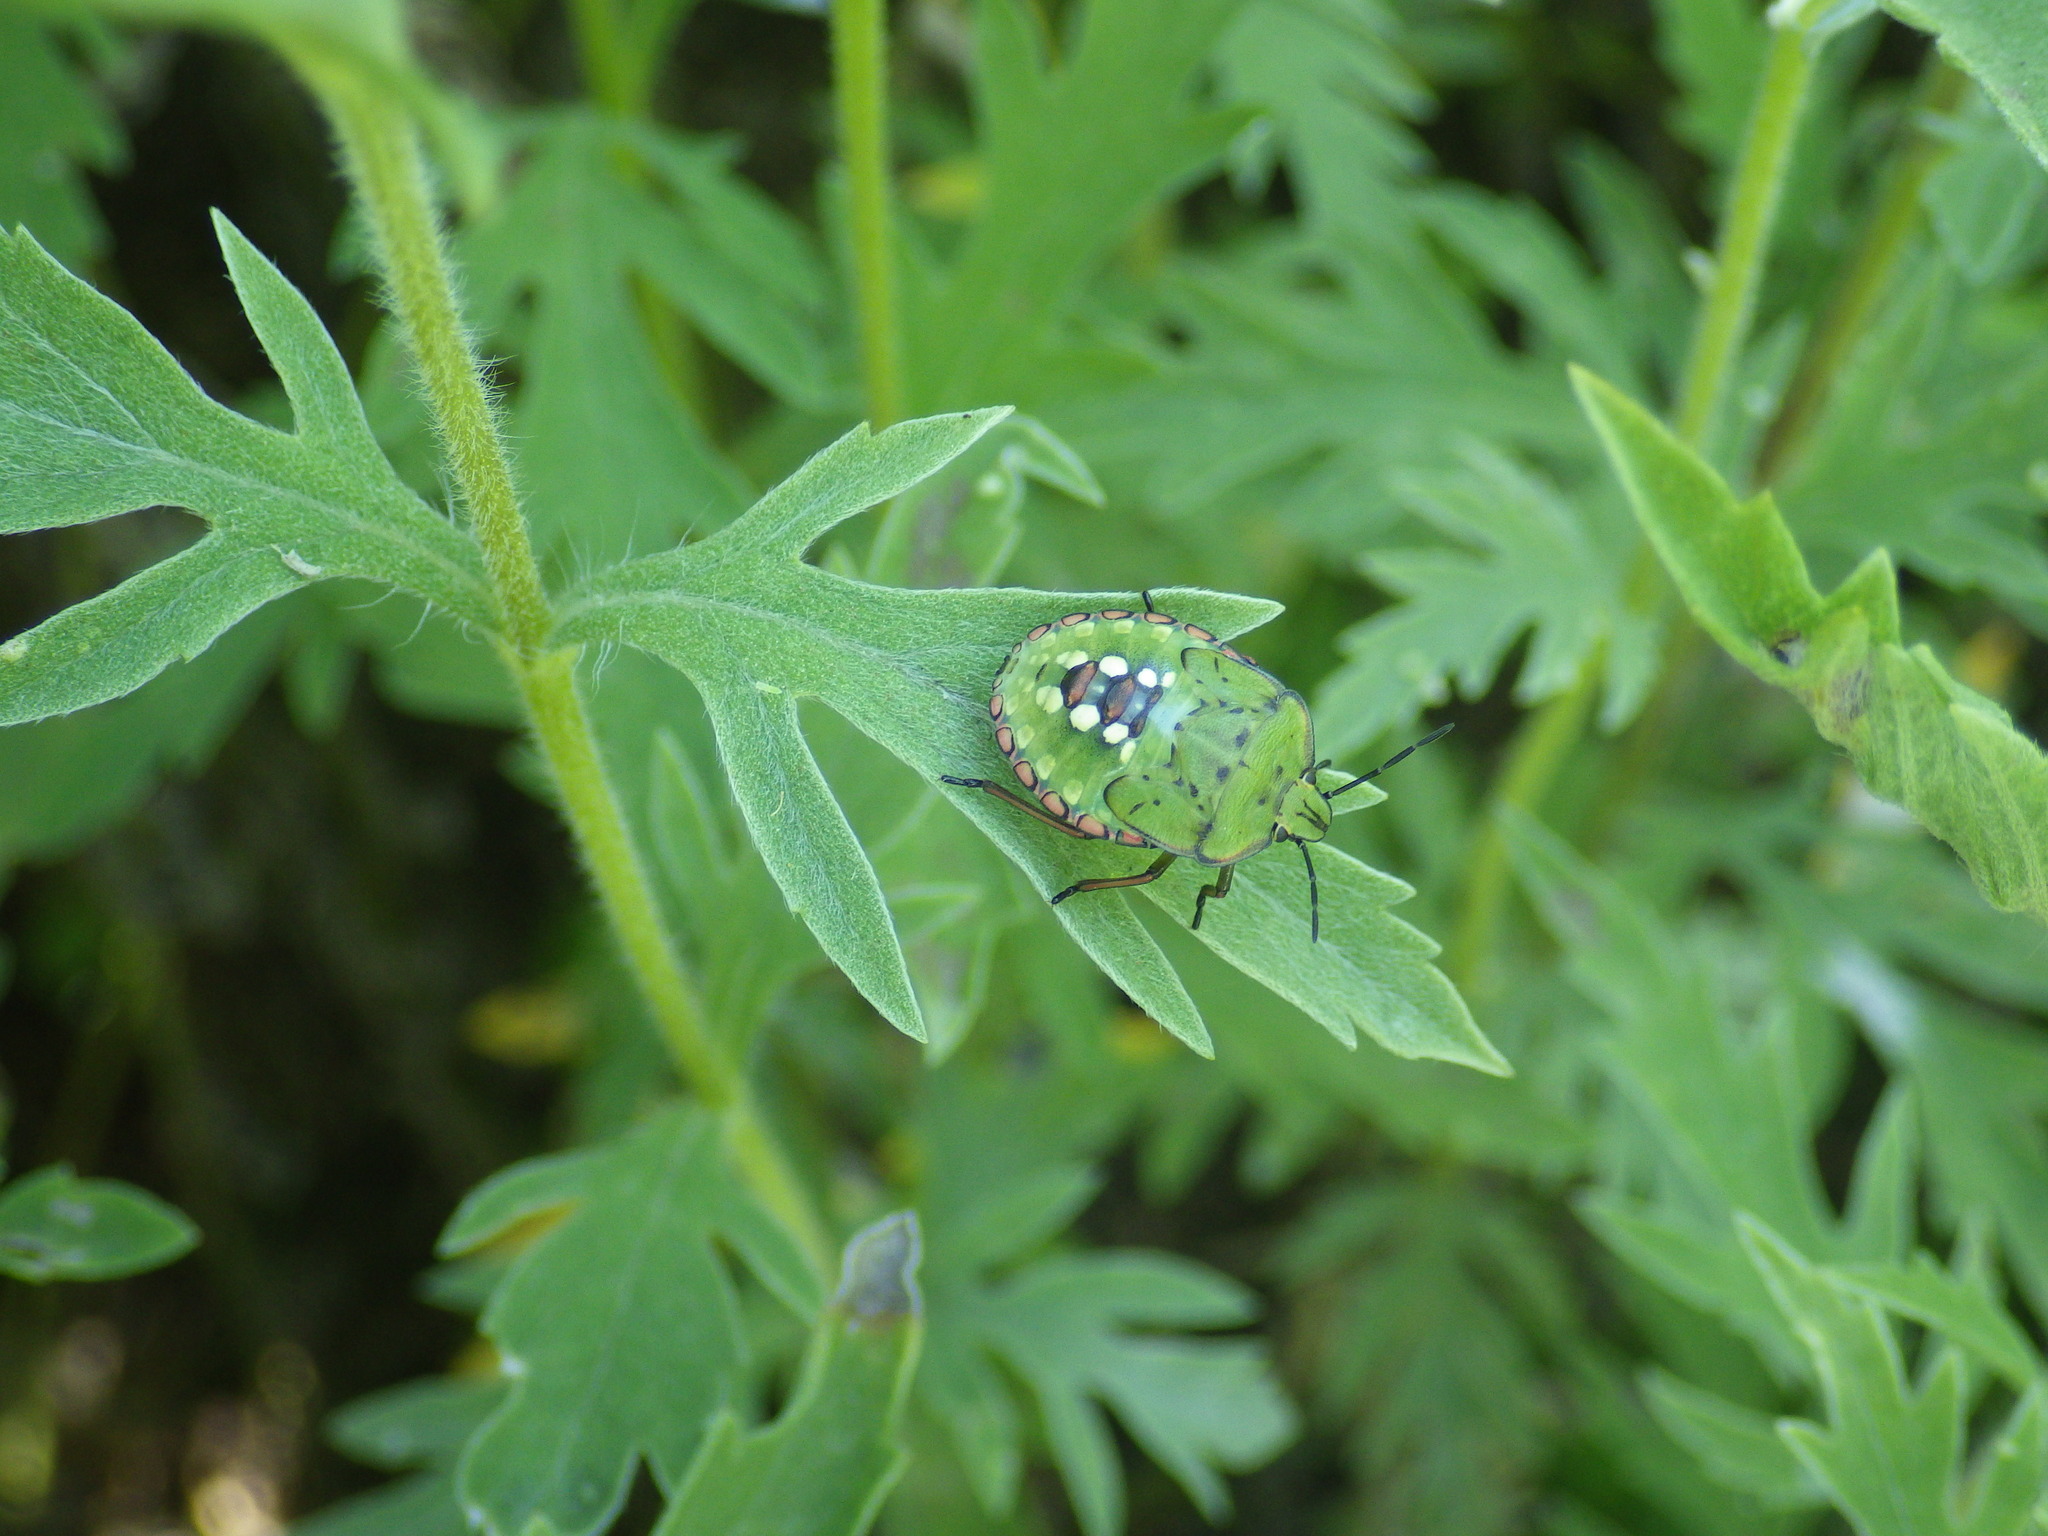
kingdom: Animalia
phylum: Arthropoda
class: Insecta
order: Hemiptera
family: Pentatomidae
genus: Nezara
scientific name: Nezara viridula
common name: Southern green stink bug
